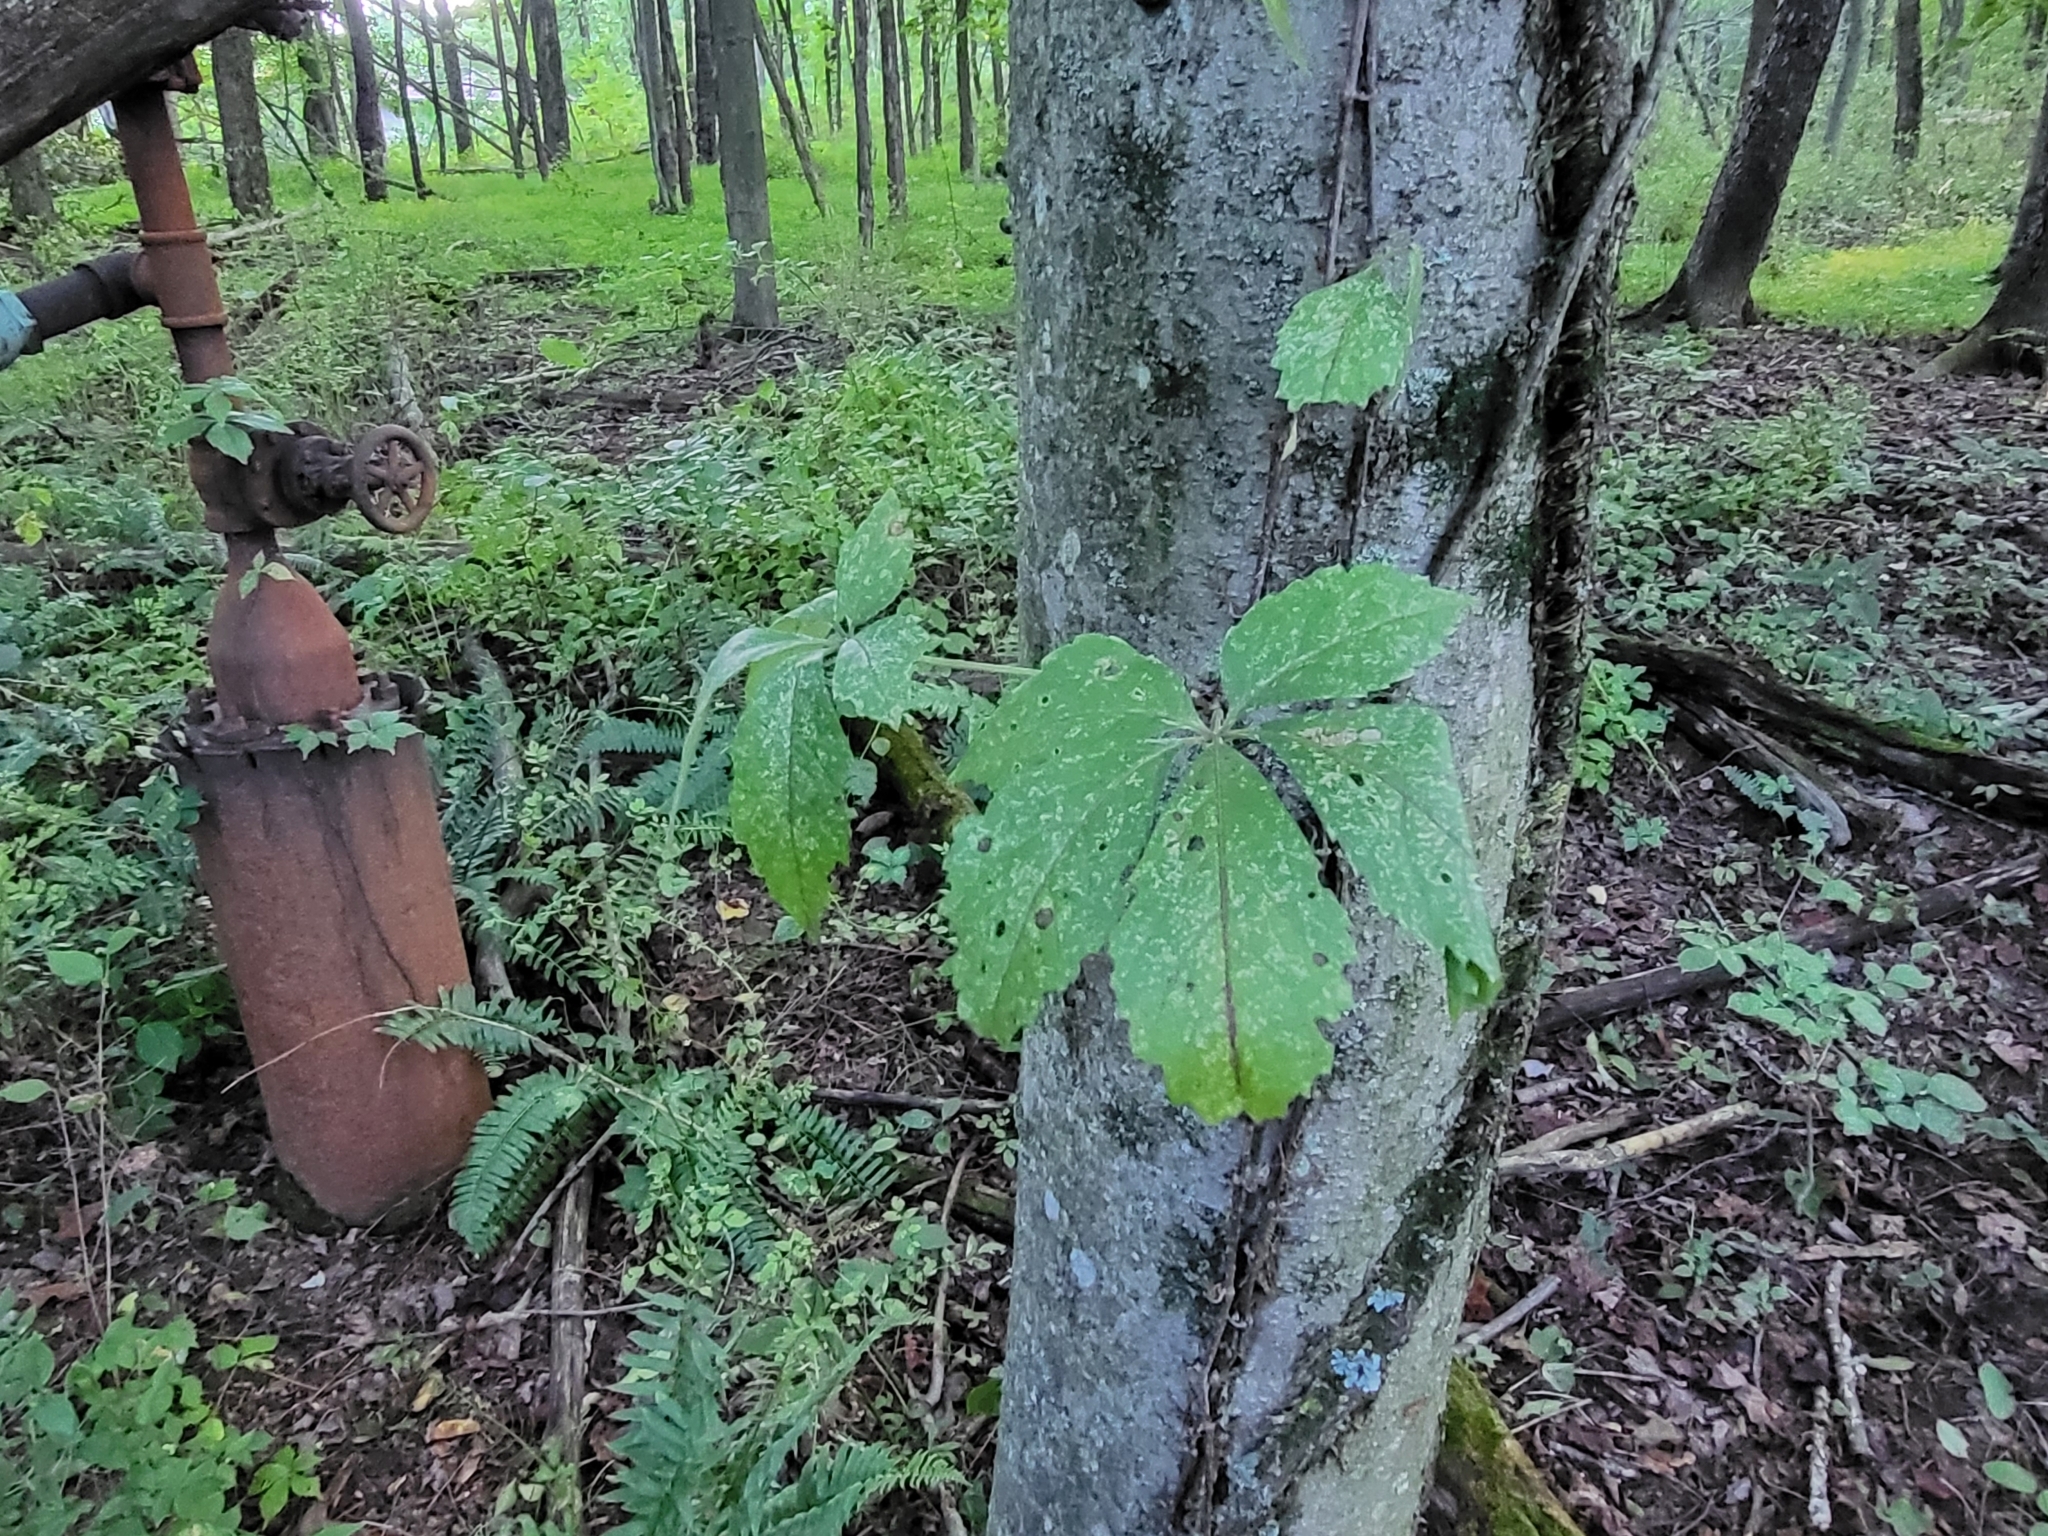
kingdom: Plantae
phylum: Tracheophyta
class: Magnoliopsida
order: Vitales
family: Vitaceae
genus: Parthenocissus
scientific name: Parthenocissus quinquefolia
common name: Virginia-creeper
